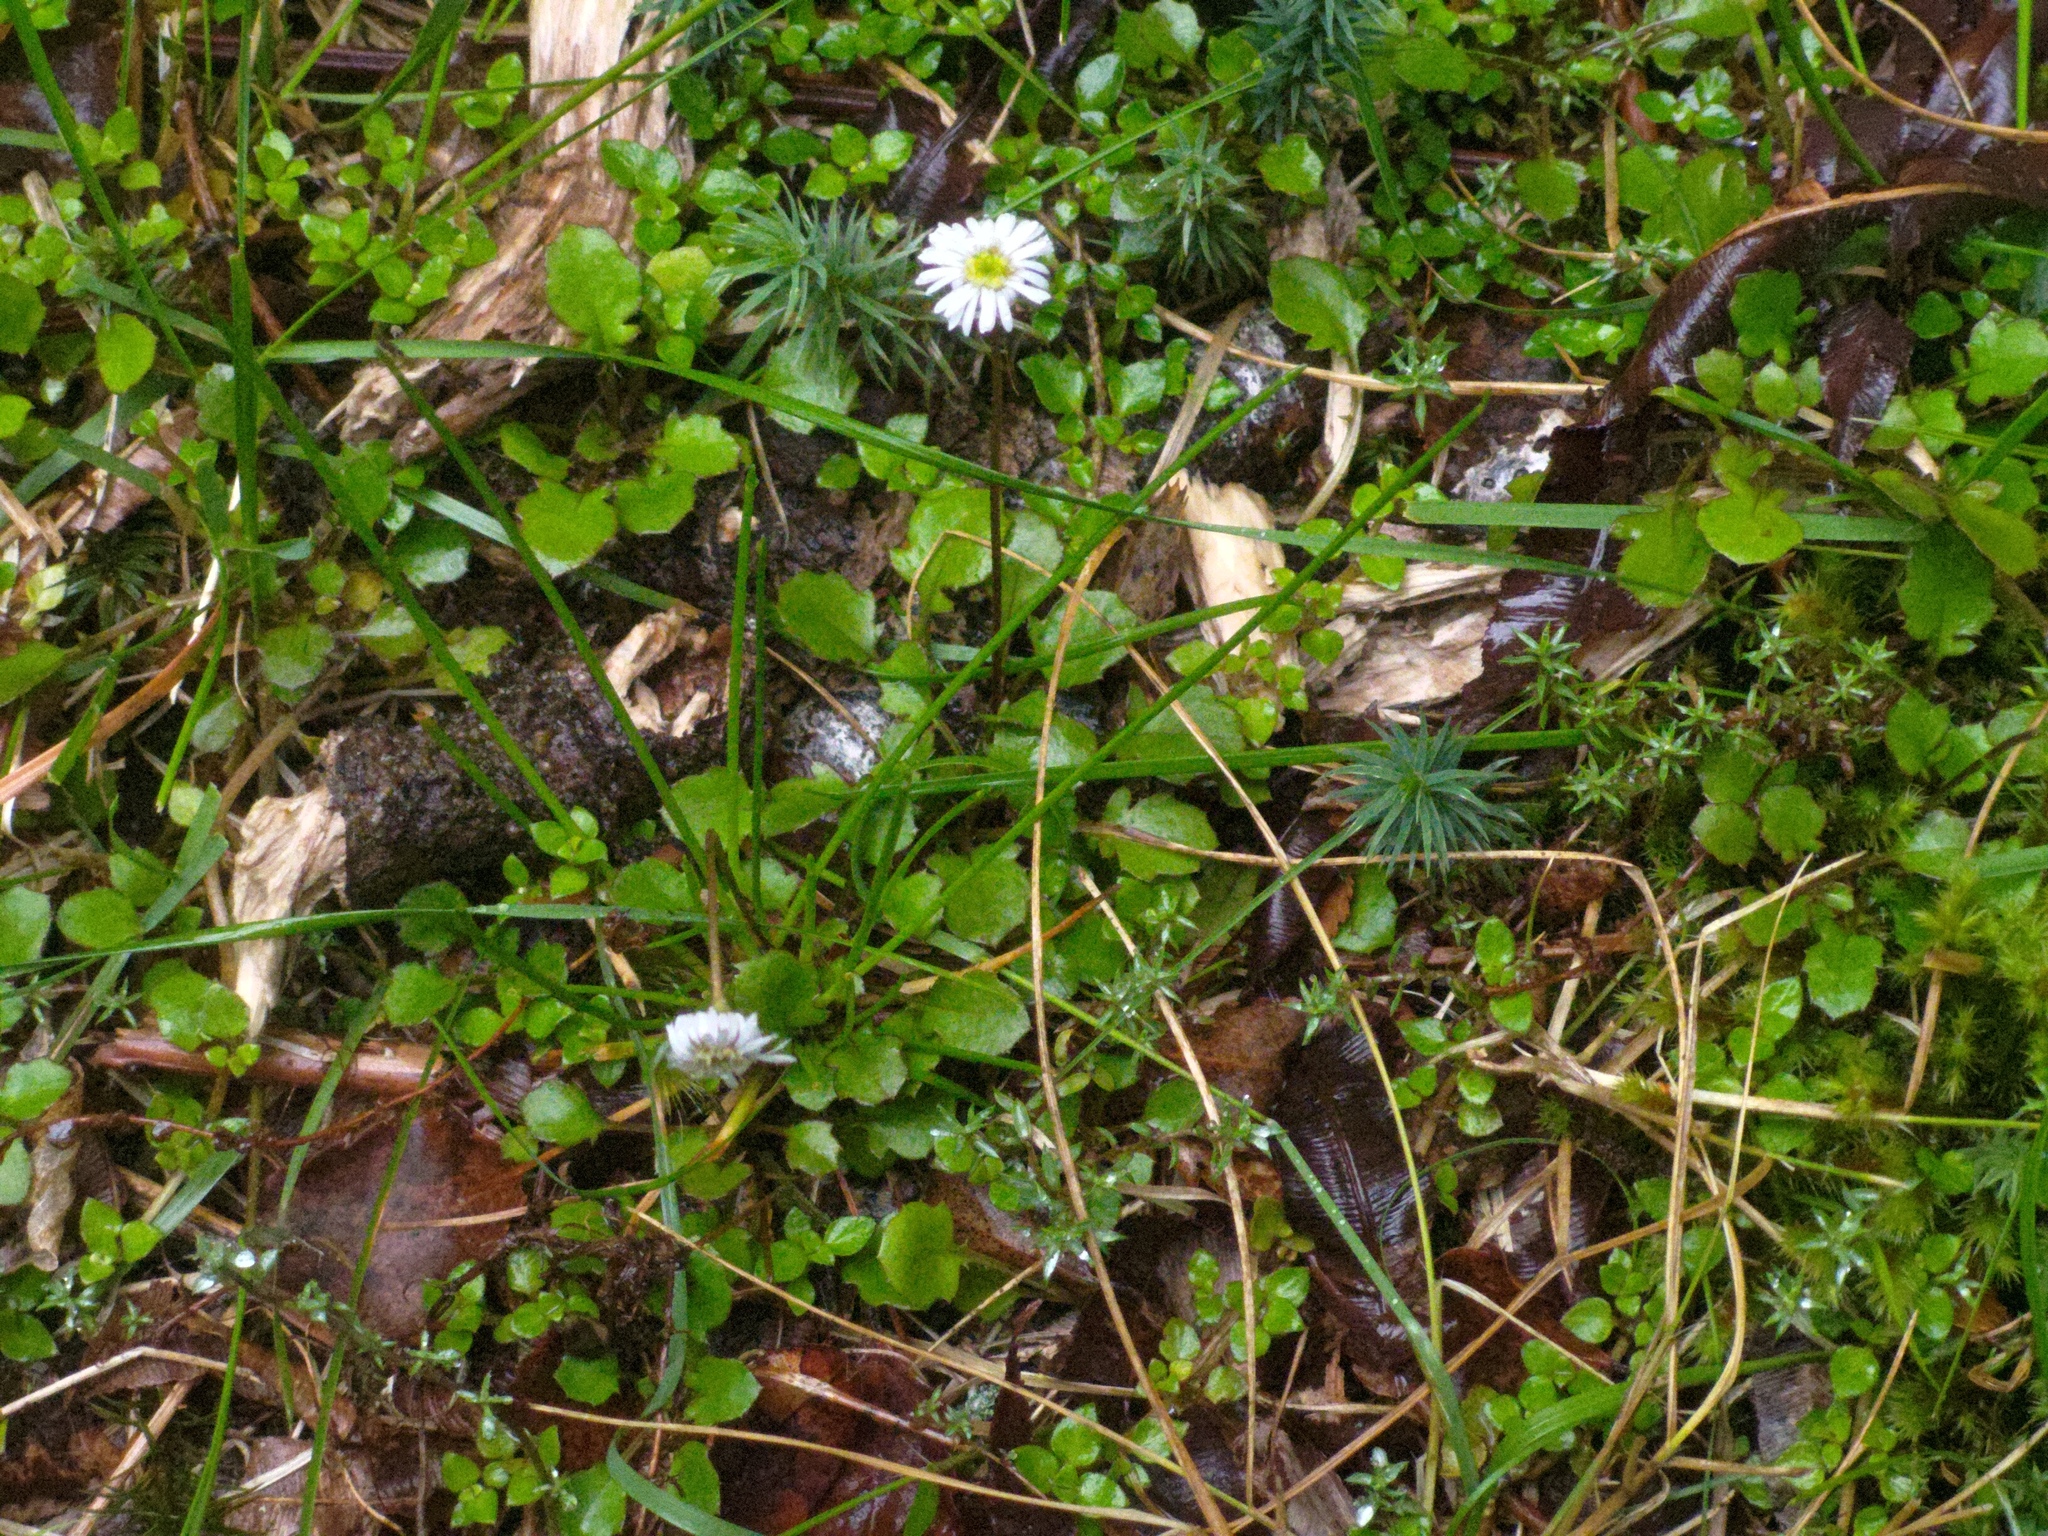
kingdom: Plantae
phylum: Tracheophyta
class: Magnoliopsida
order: Asterales
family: Asteraceae
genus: Lagenophora
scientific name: Lagenophora pumila
